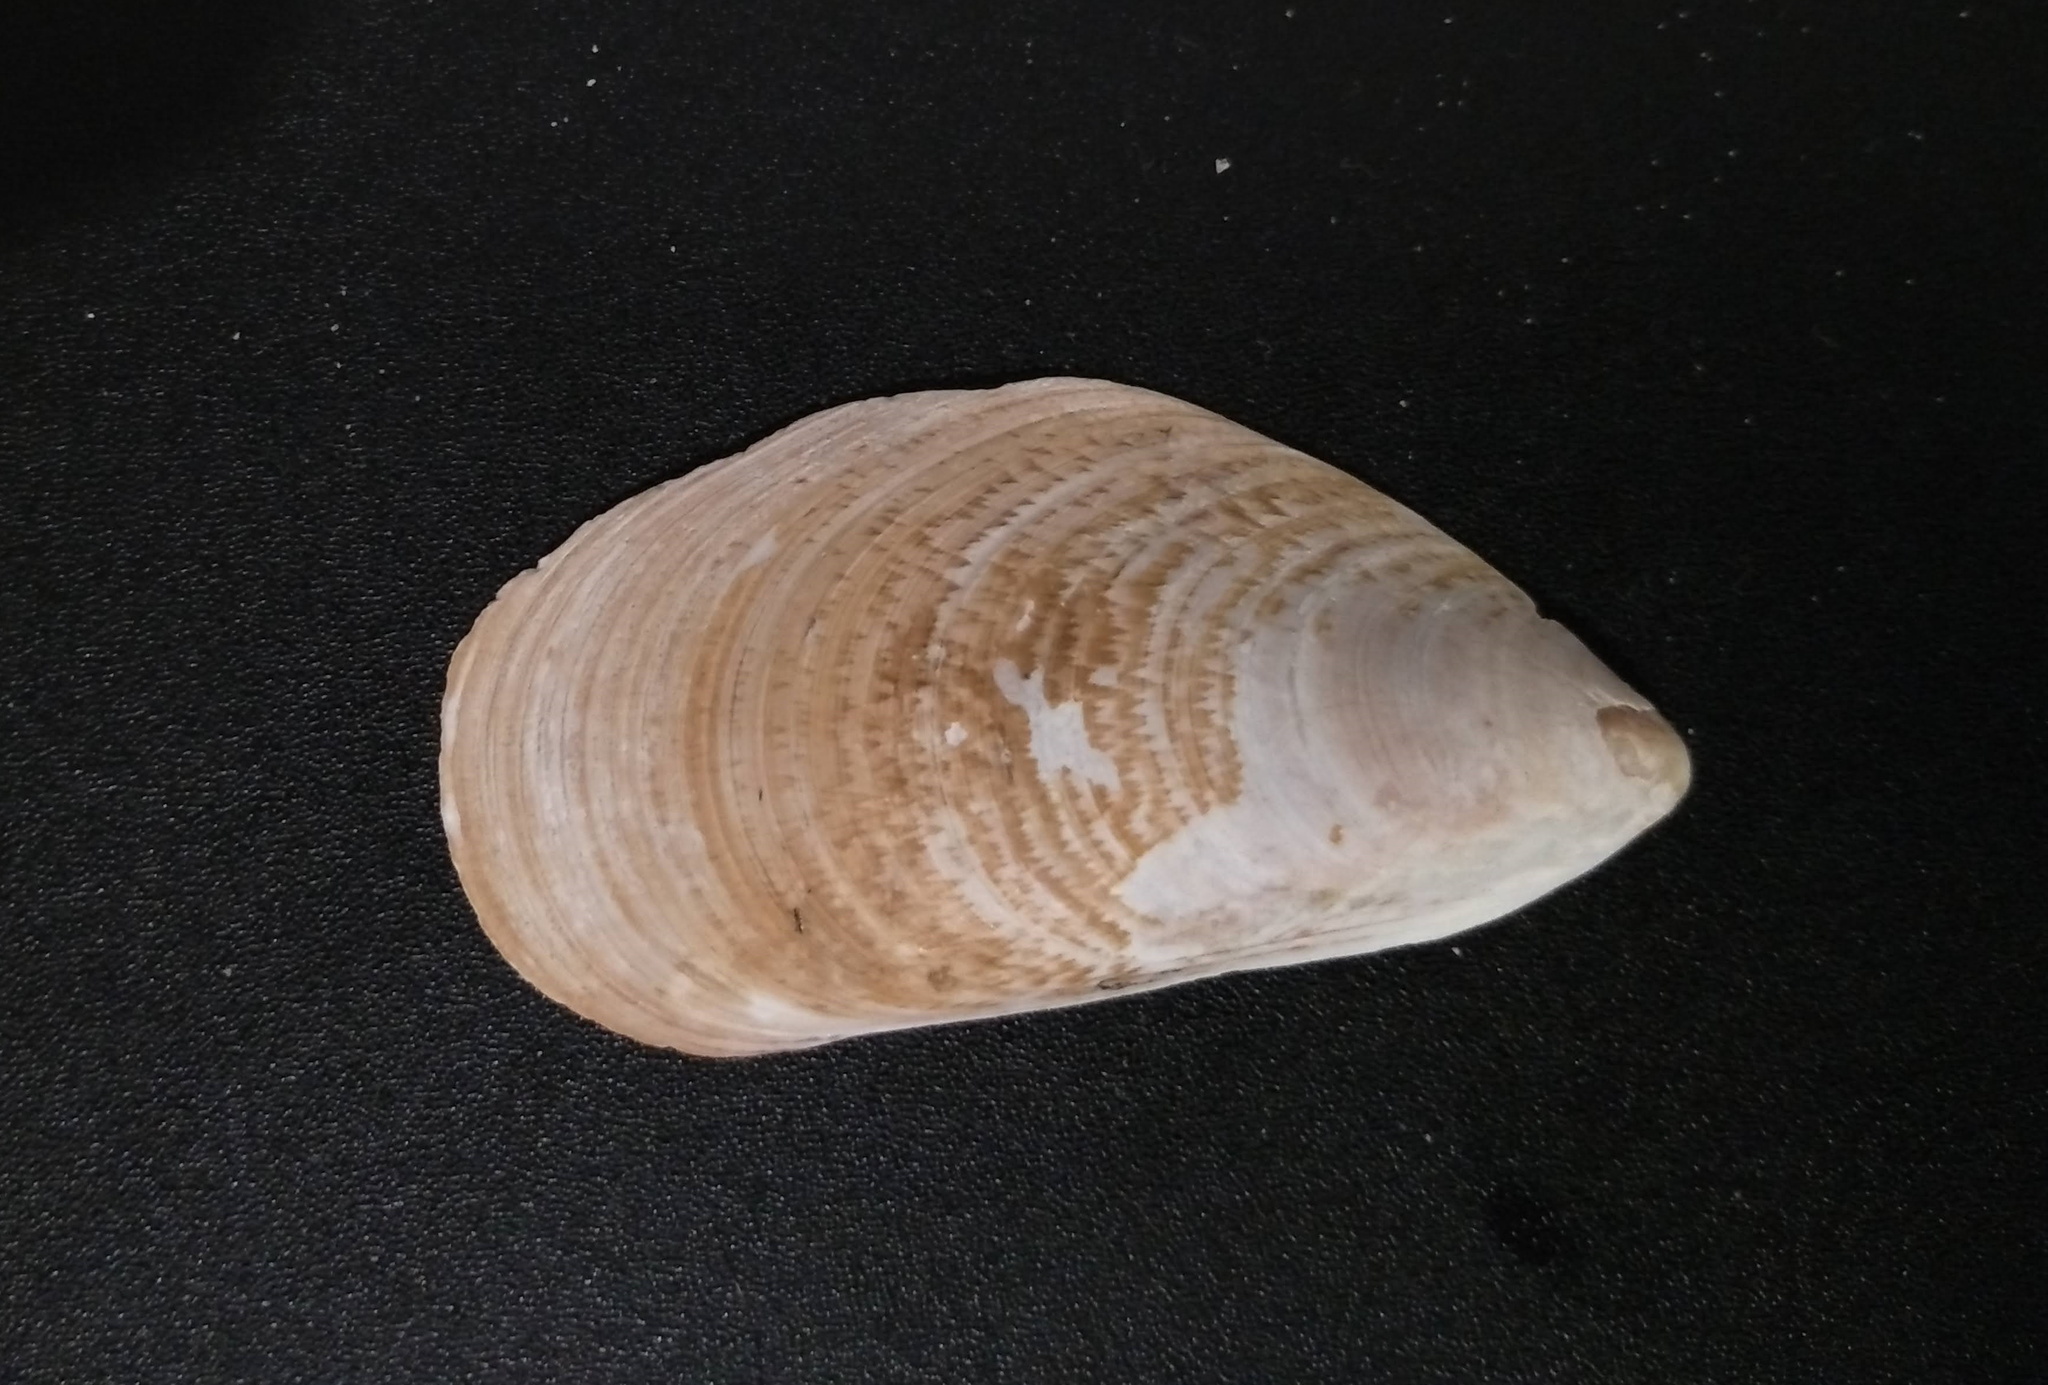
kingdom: Animalia
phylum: Mollusca
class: Bivalvia
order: Mytilida
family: Mytilidae
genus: Perna
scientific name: Perna perna
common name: Mexilhao mussel
